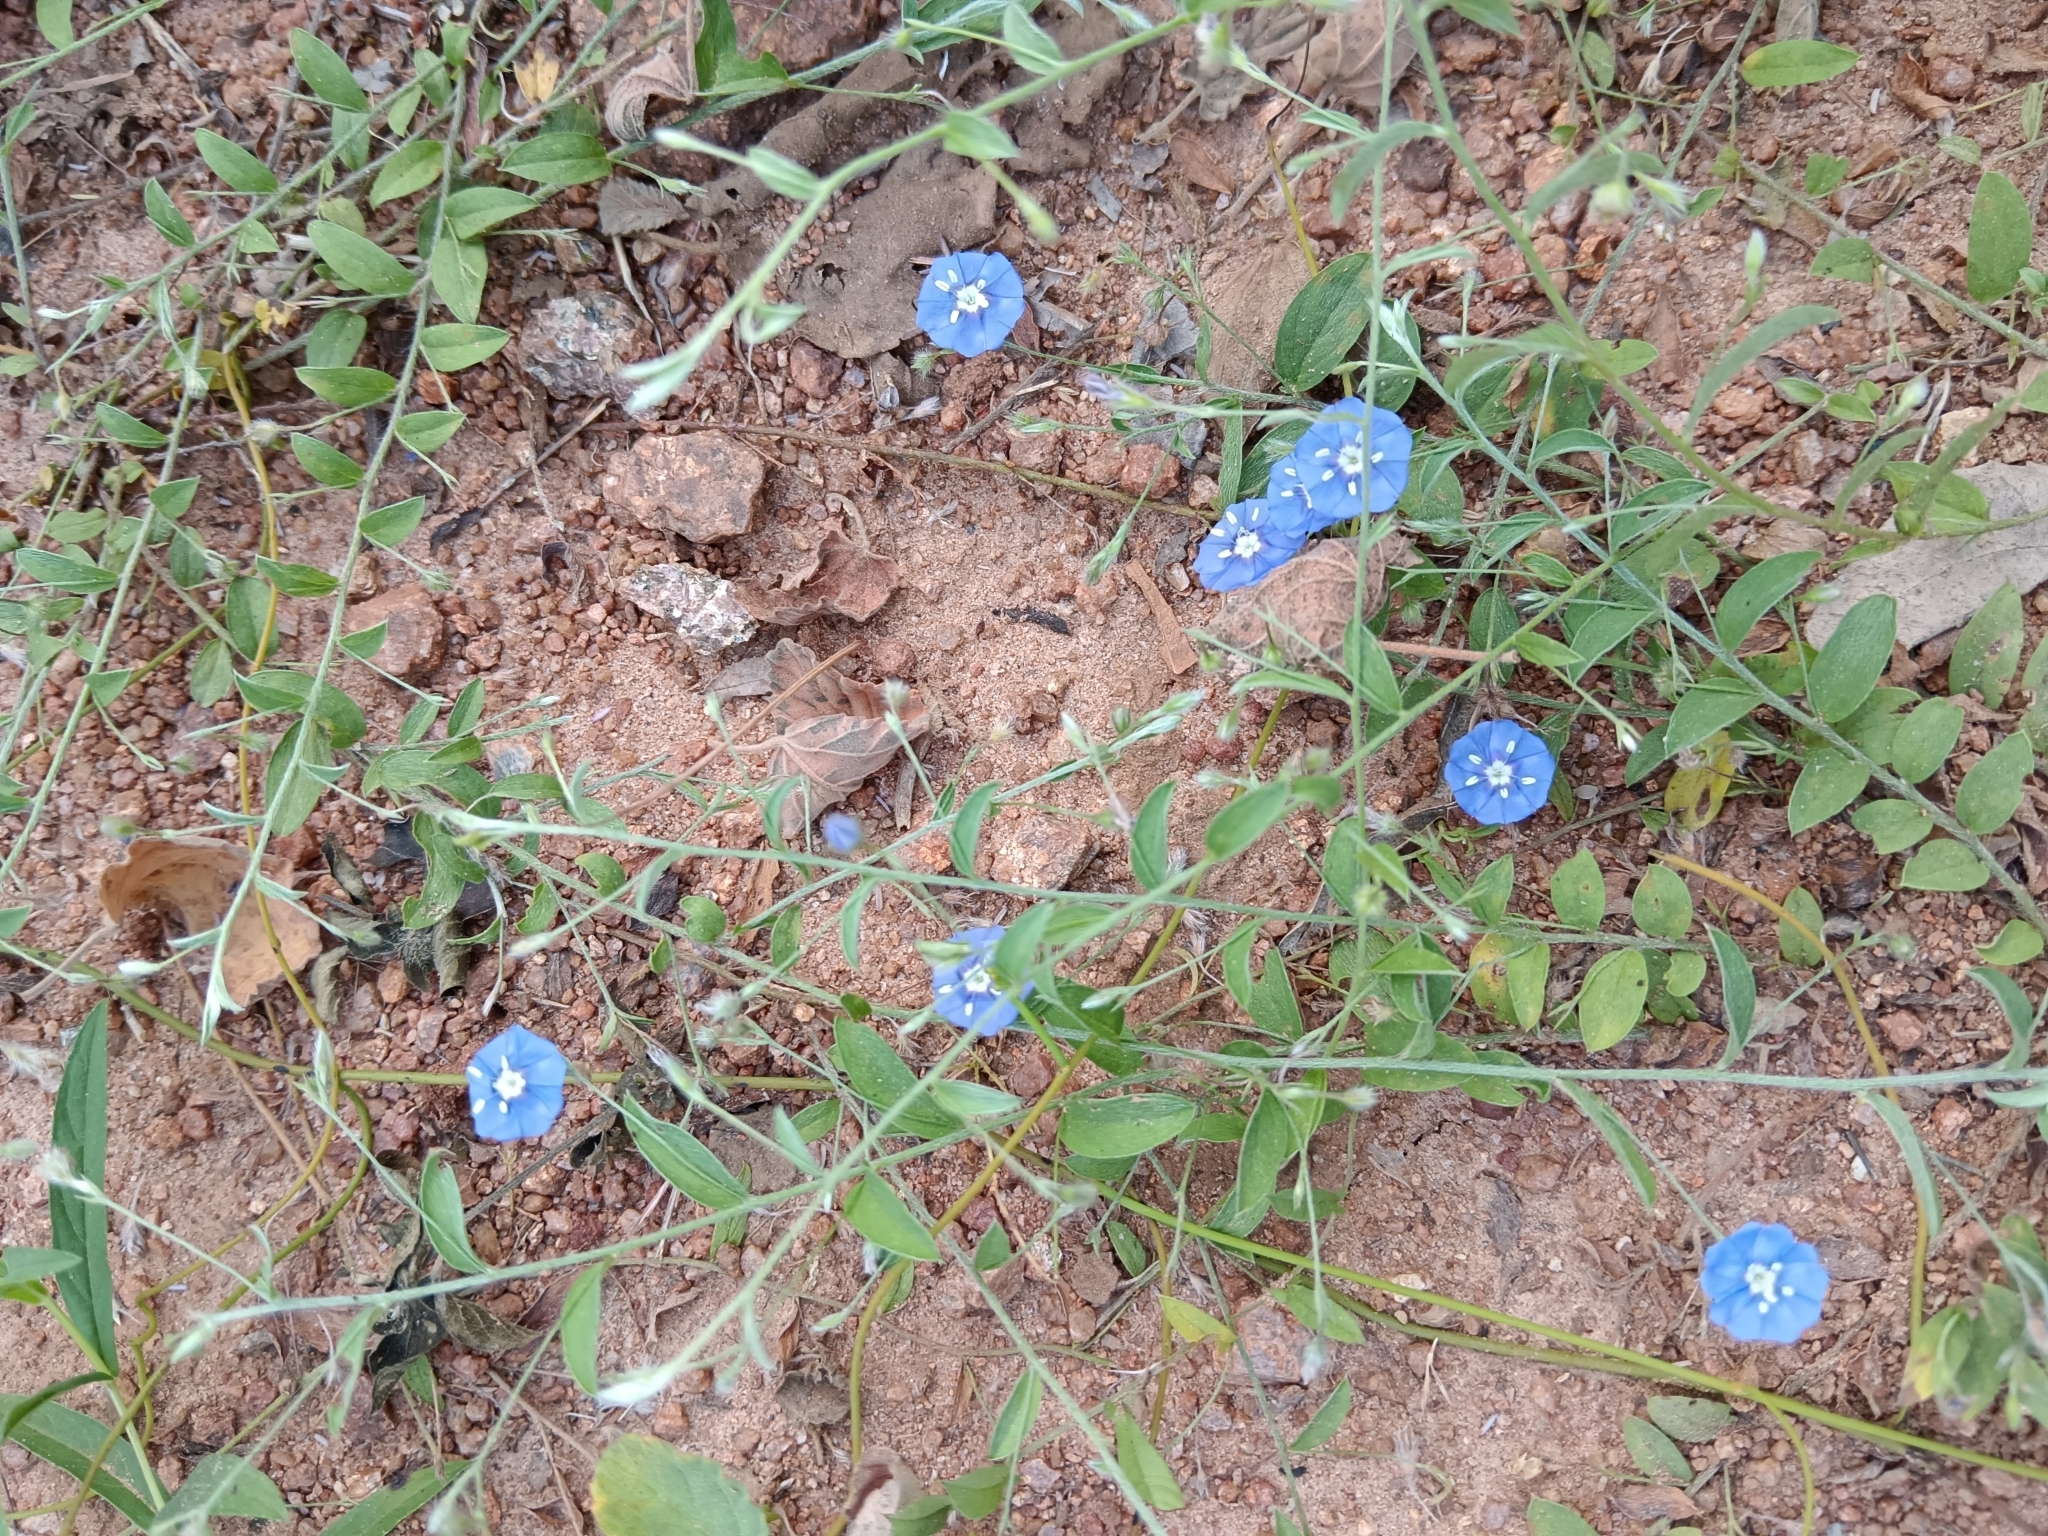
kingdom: Plantae
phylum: Tracheophyta
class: Magnoliopsida
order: Solanales
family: Convolvulaceae
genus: Evolvulus
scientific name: Evolvulus alsinoides
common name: Slender dwarf morning-glory
